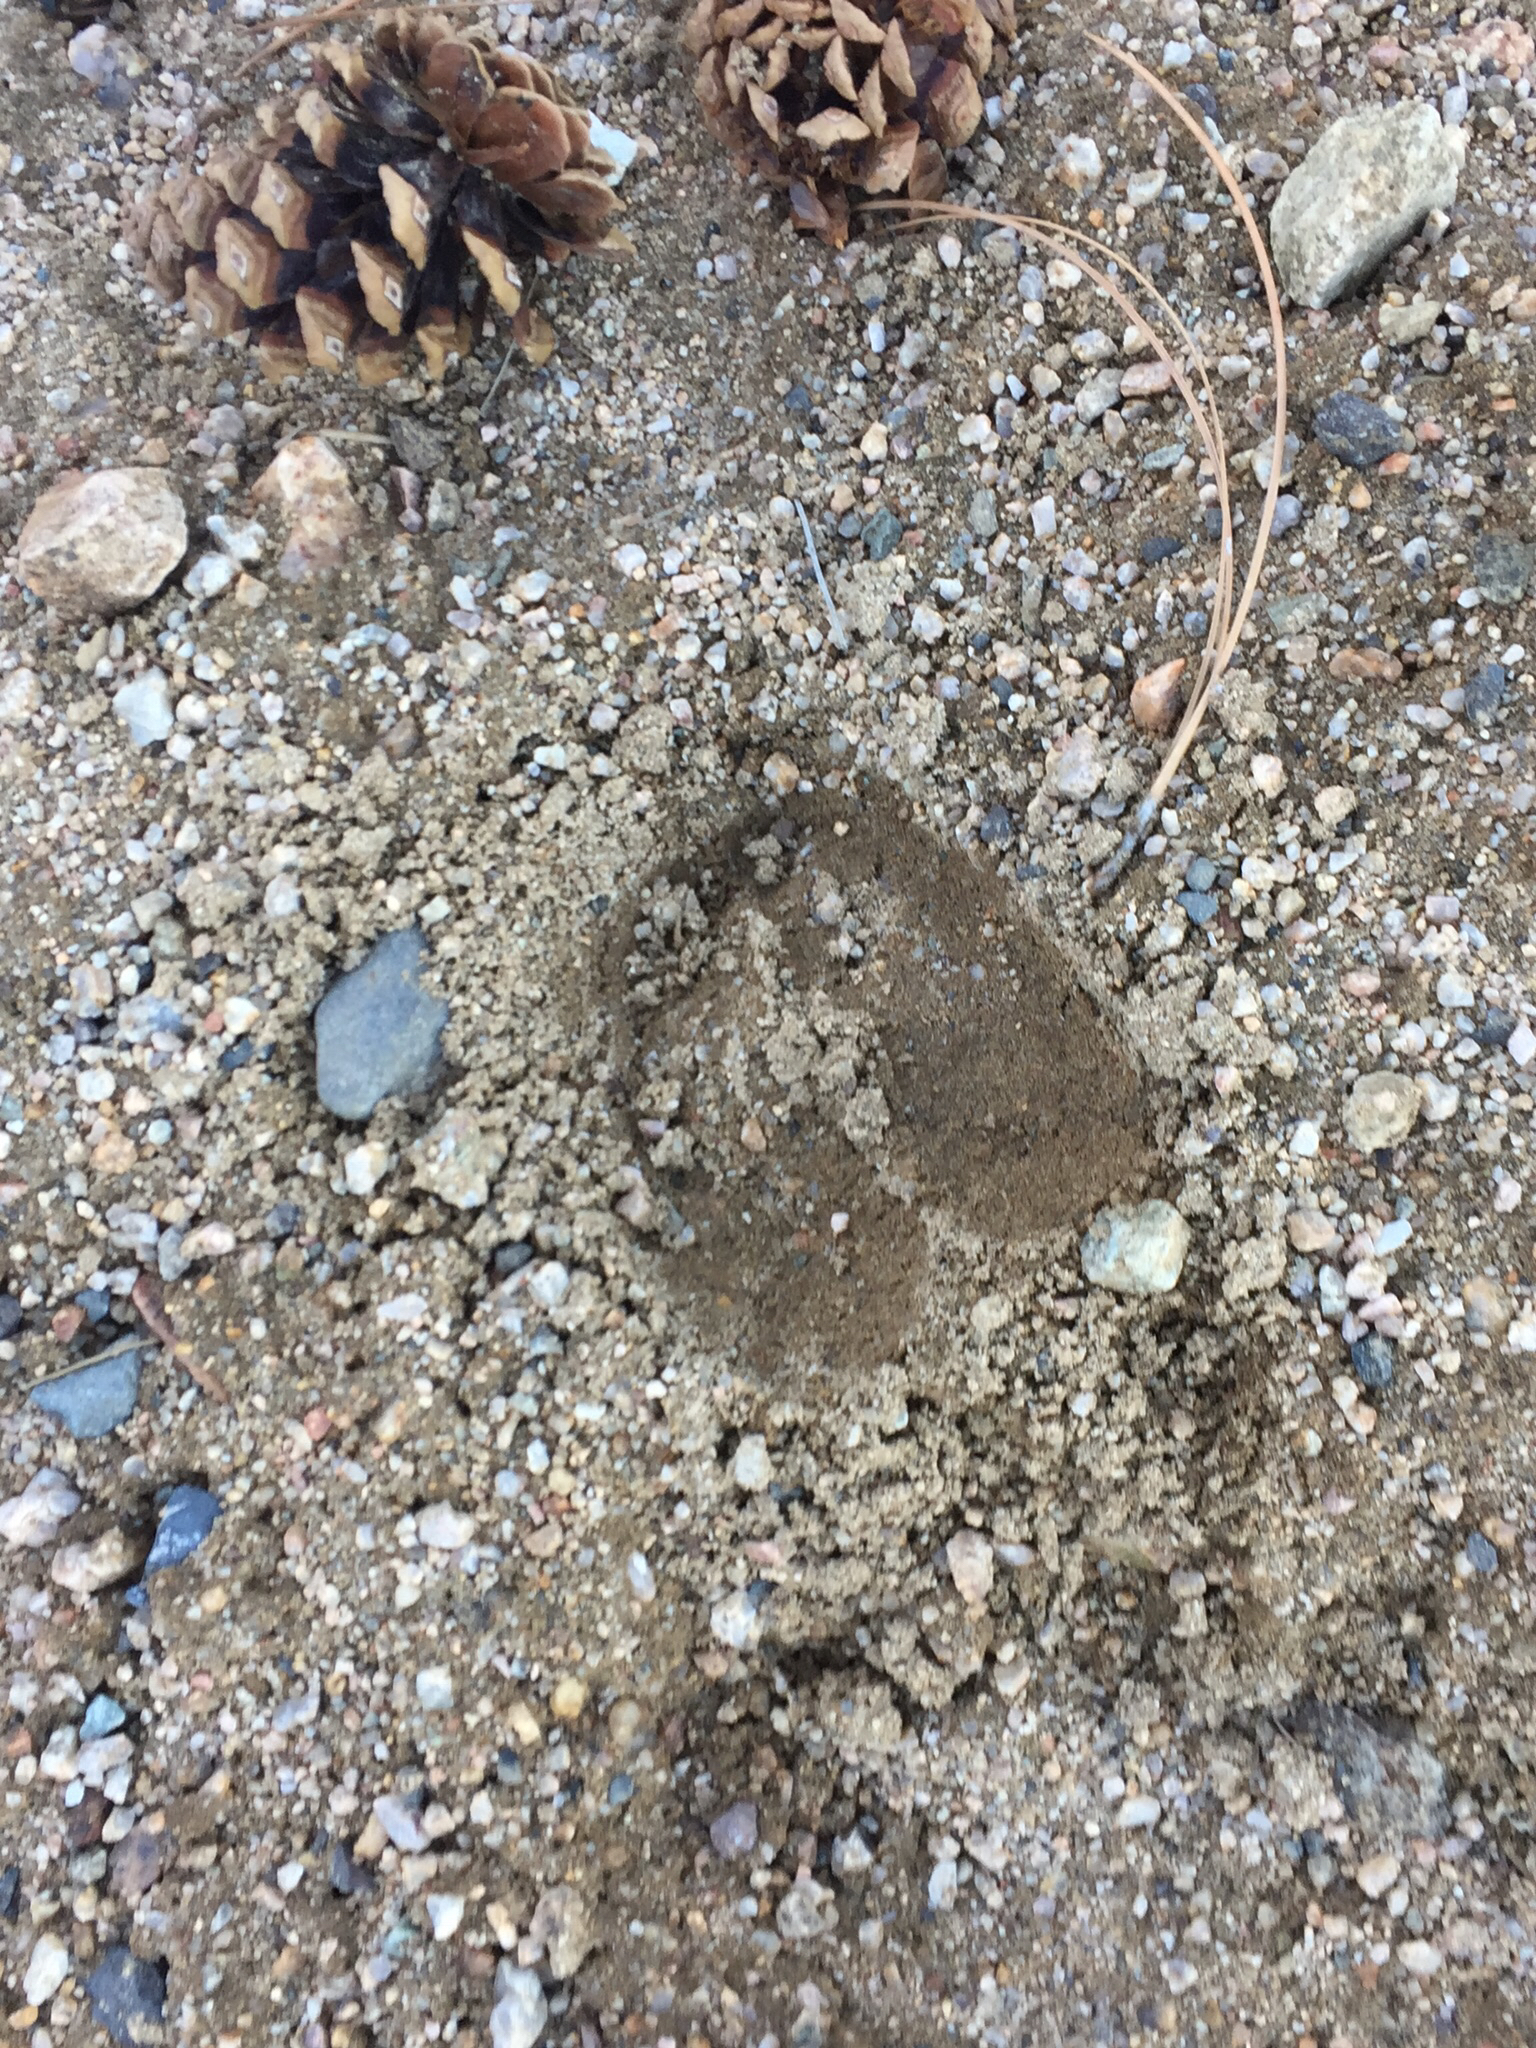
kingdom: Animalia
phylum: Chordata
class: Mammalia
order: Artiodactyla
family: Cervidae
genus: Cervus
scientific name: Cervus elaphus
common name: Red deer
